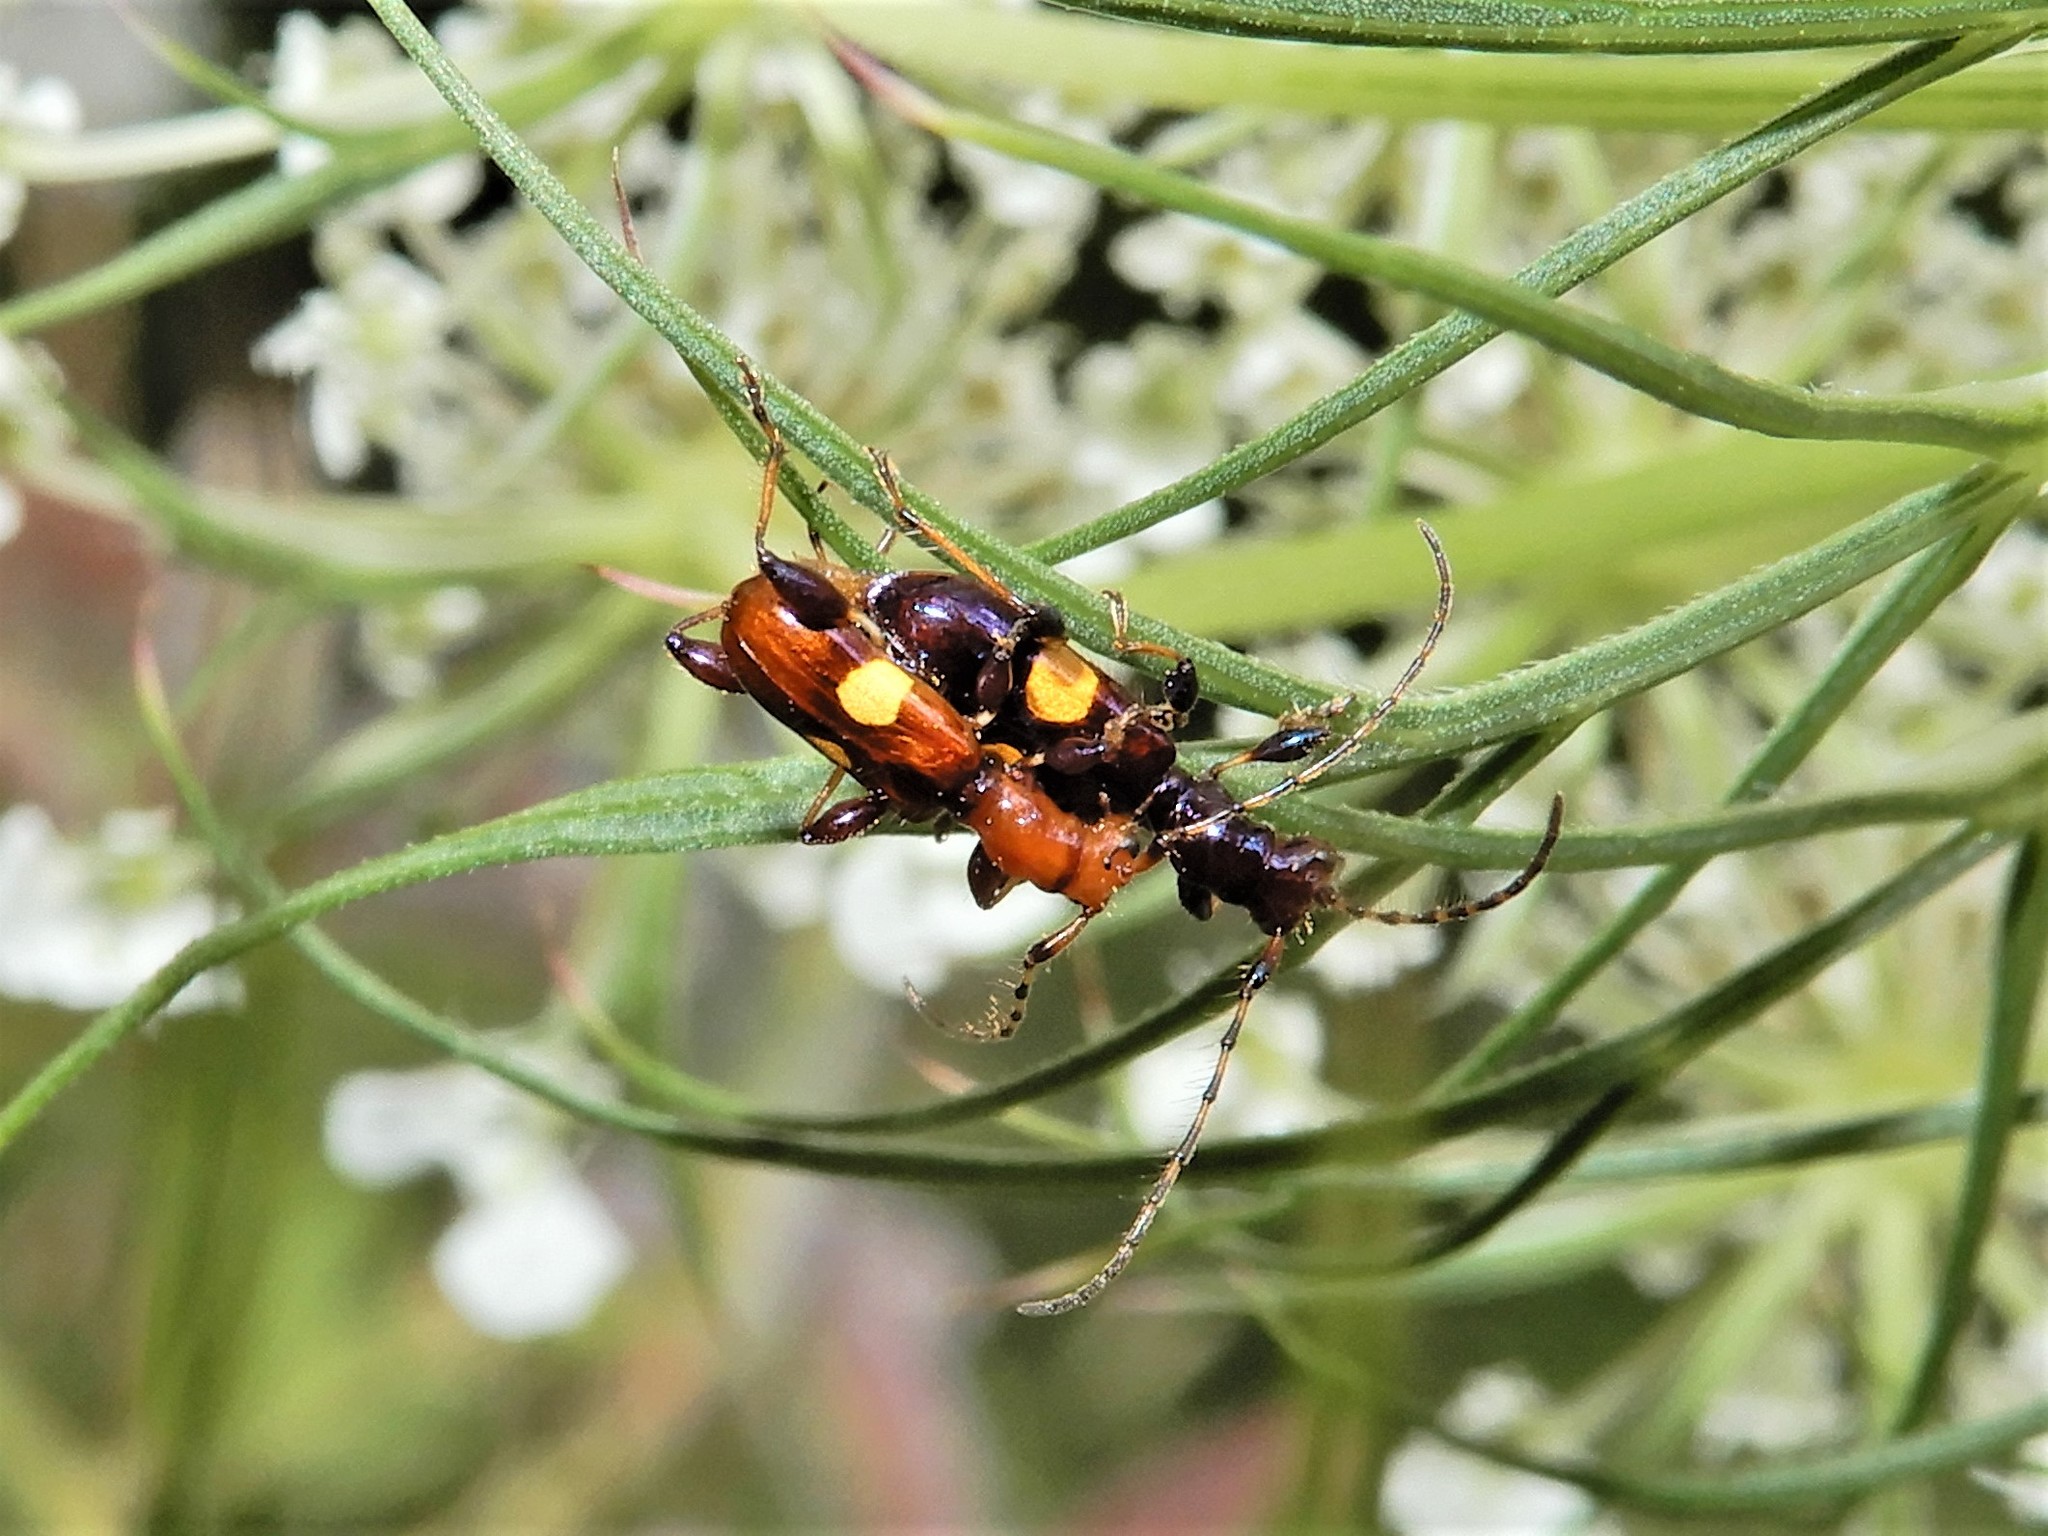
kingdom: Animalia
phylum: Arthropoda
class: Insecta
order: Coleoptera
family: Cerambycidae
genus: Zorion
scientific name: Zorion guttigerum
